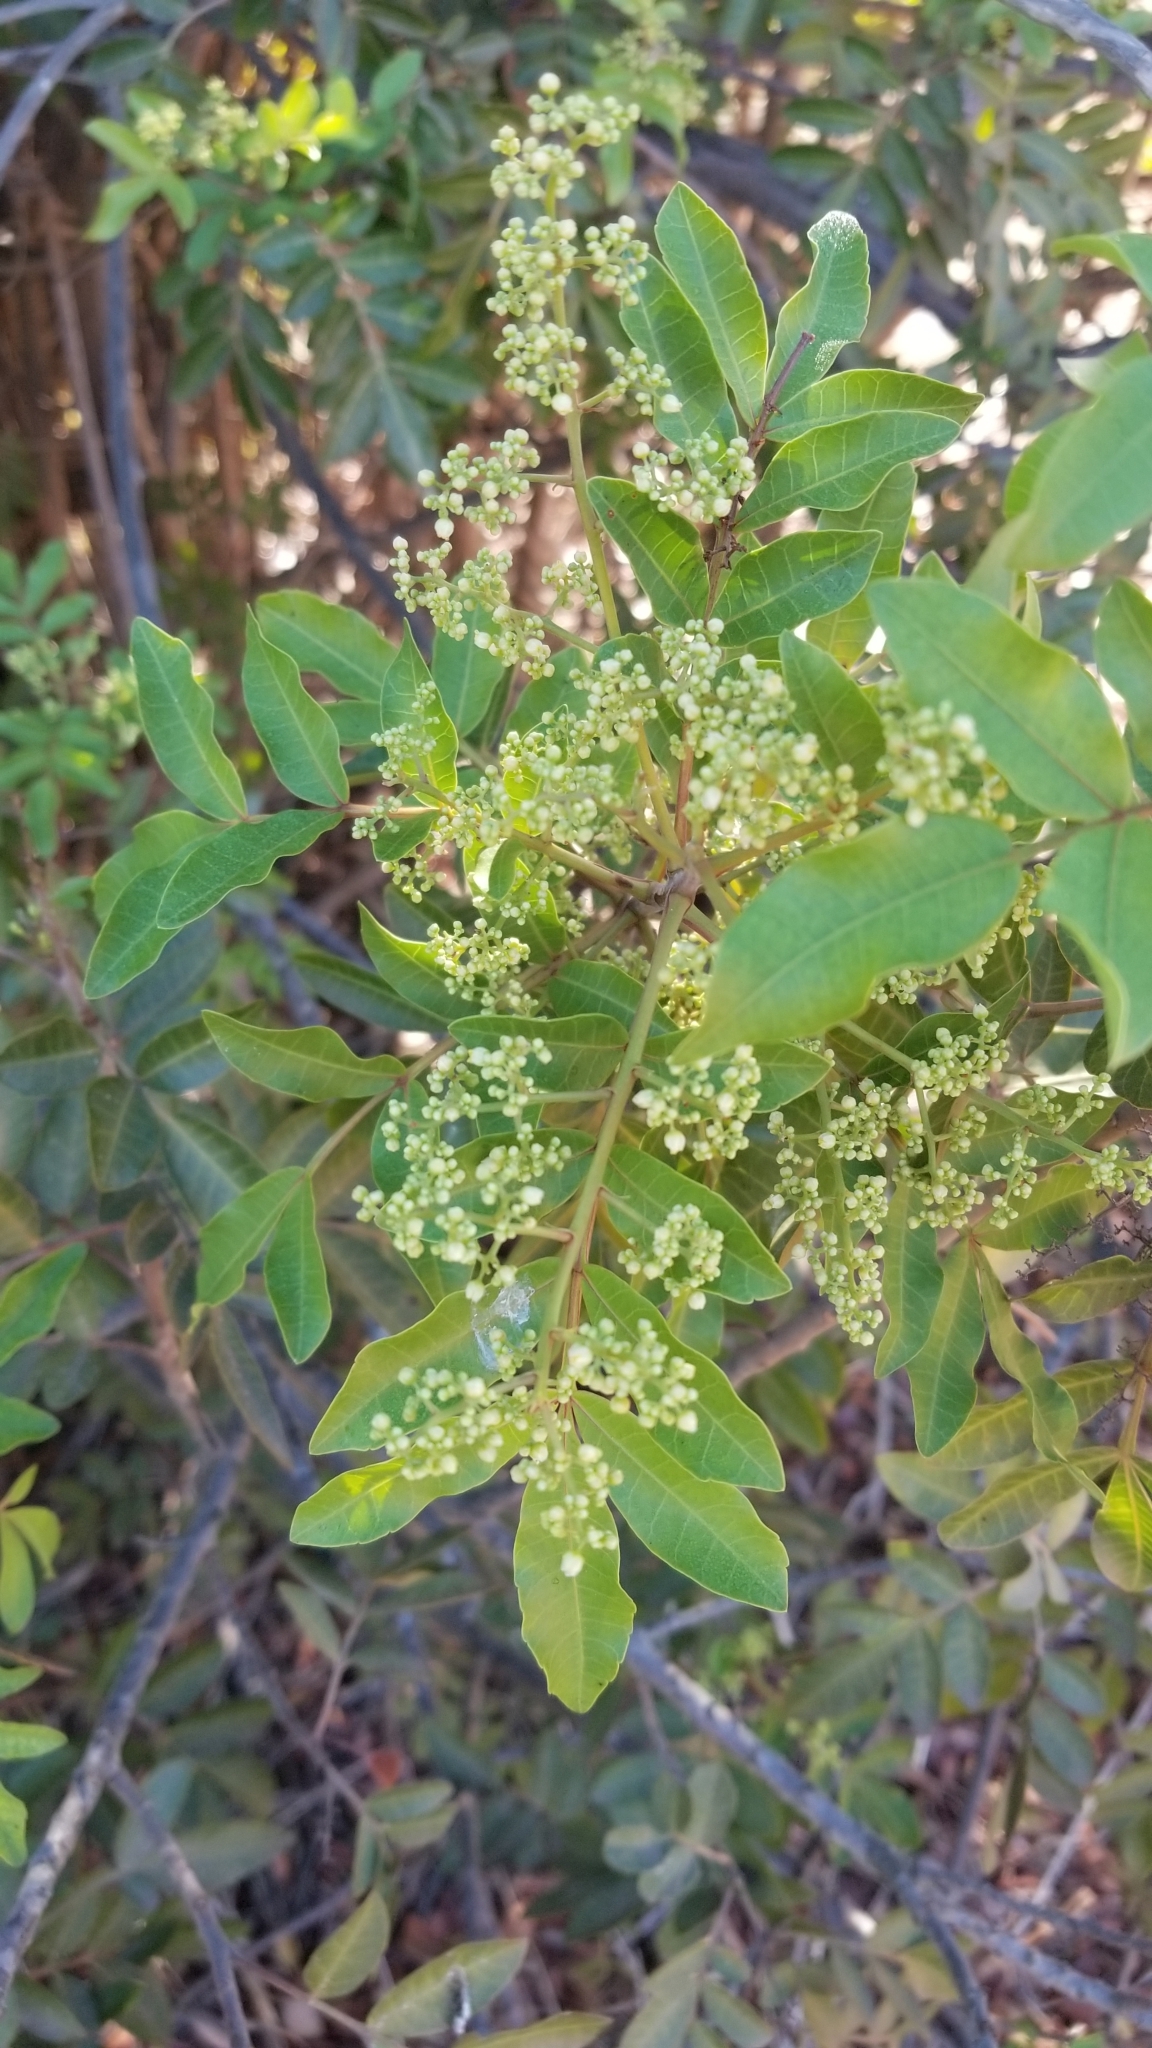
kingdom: Plantae
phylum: Tracheophyta
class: Magnoliopsida
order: Sapindales
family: Anacardiaceae
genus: Schinus
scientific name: Schinus terebinthifolia
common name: Brazilian peppertree
